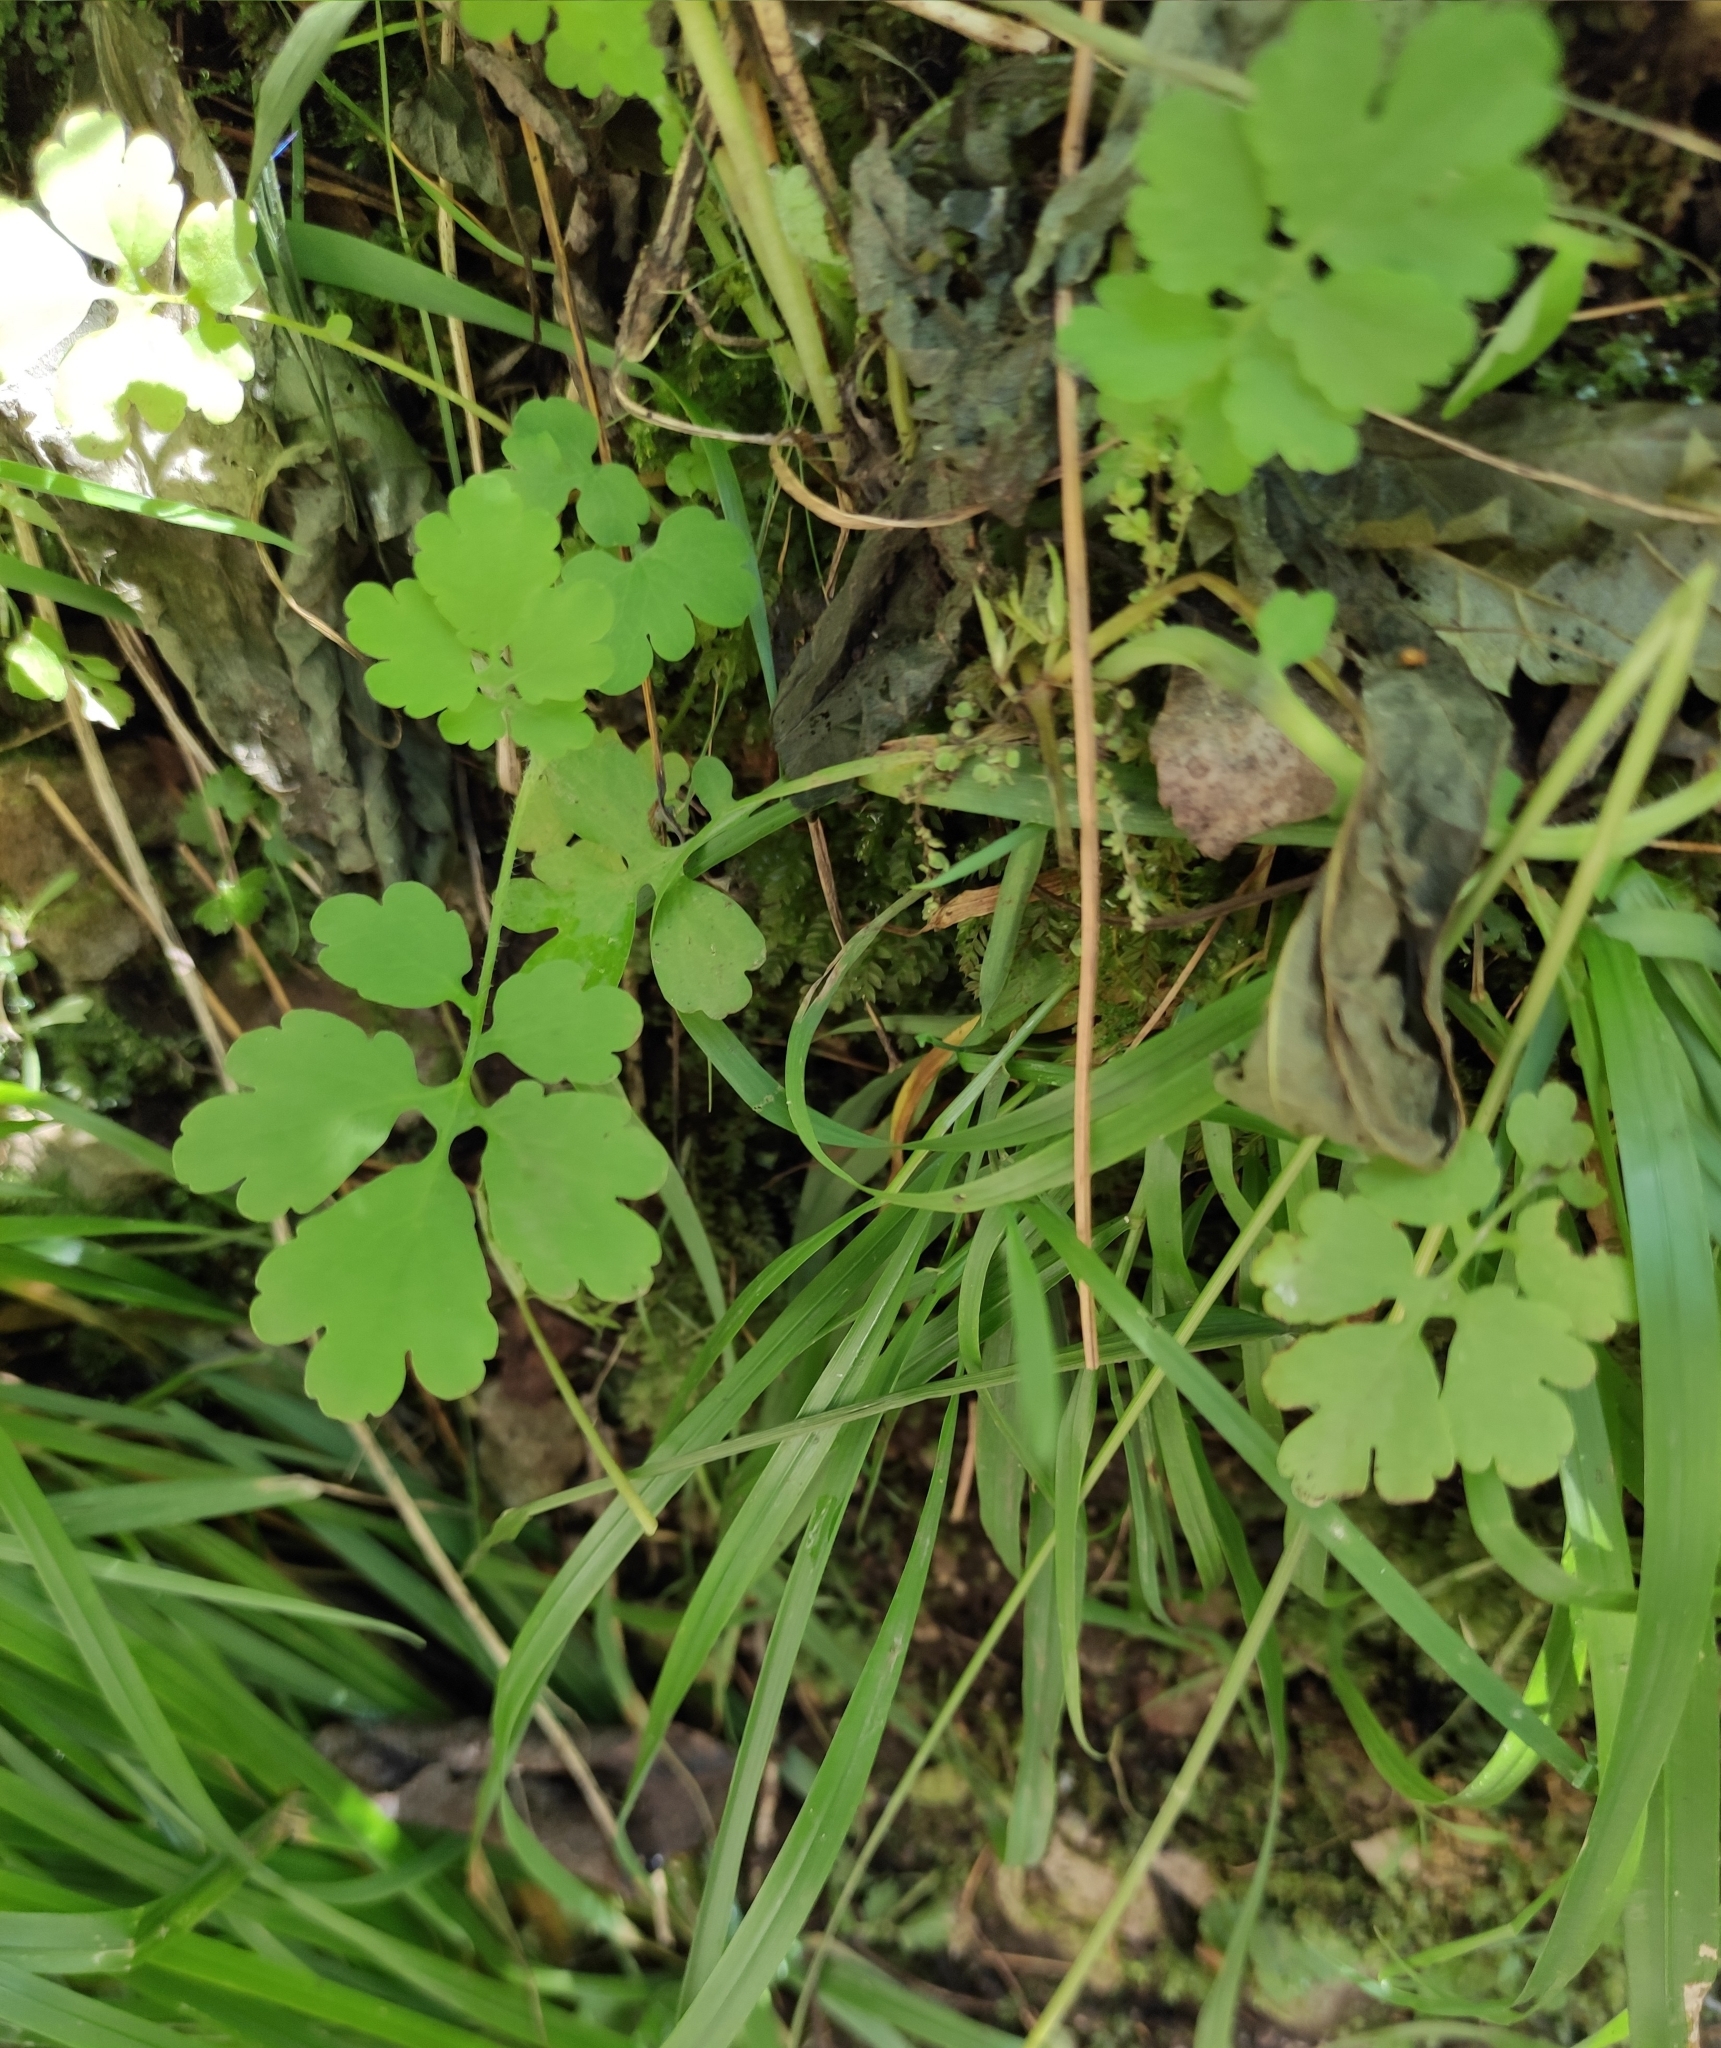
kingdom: Plantae
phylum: Tracheophyta
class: Magnoliopsida
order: Ranunculales
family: Papaveraceae
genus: Chelidonium
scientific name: Chelidonium majus
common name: Greater celandine
